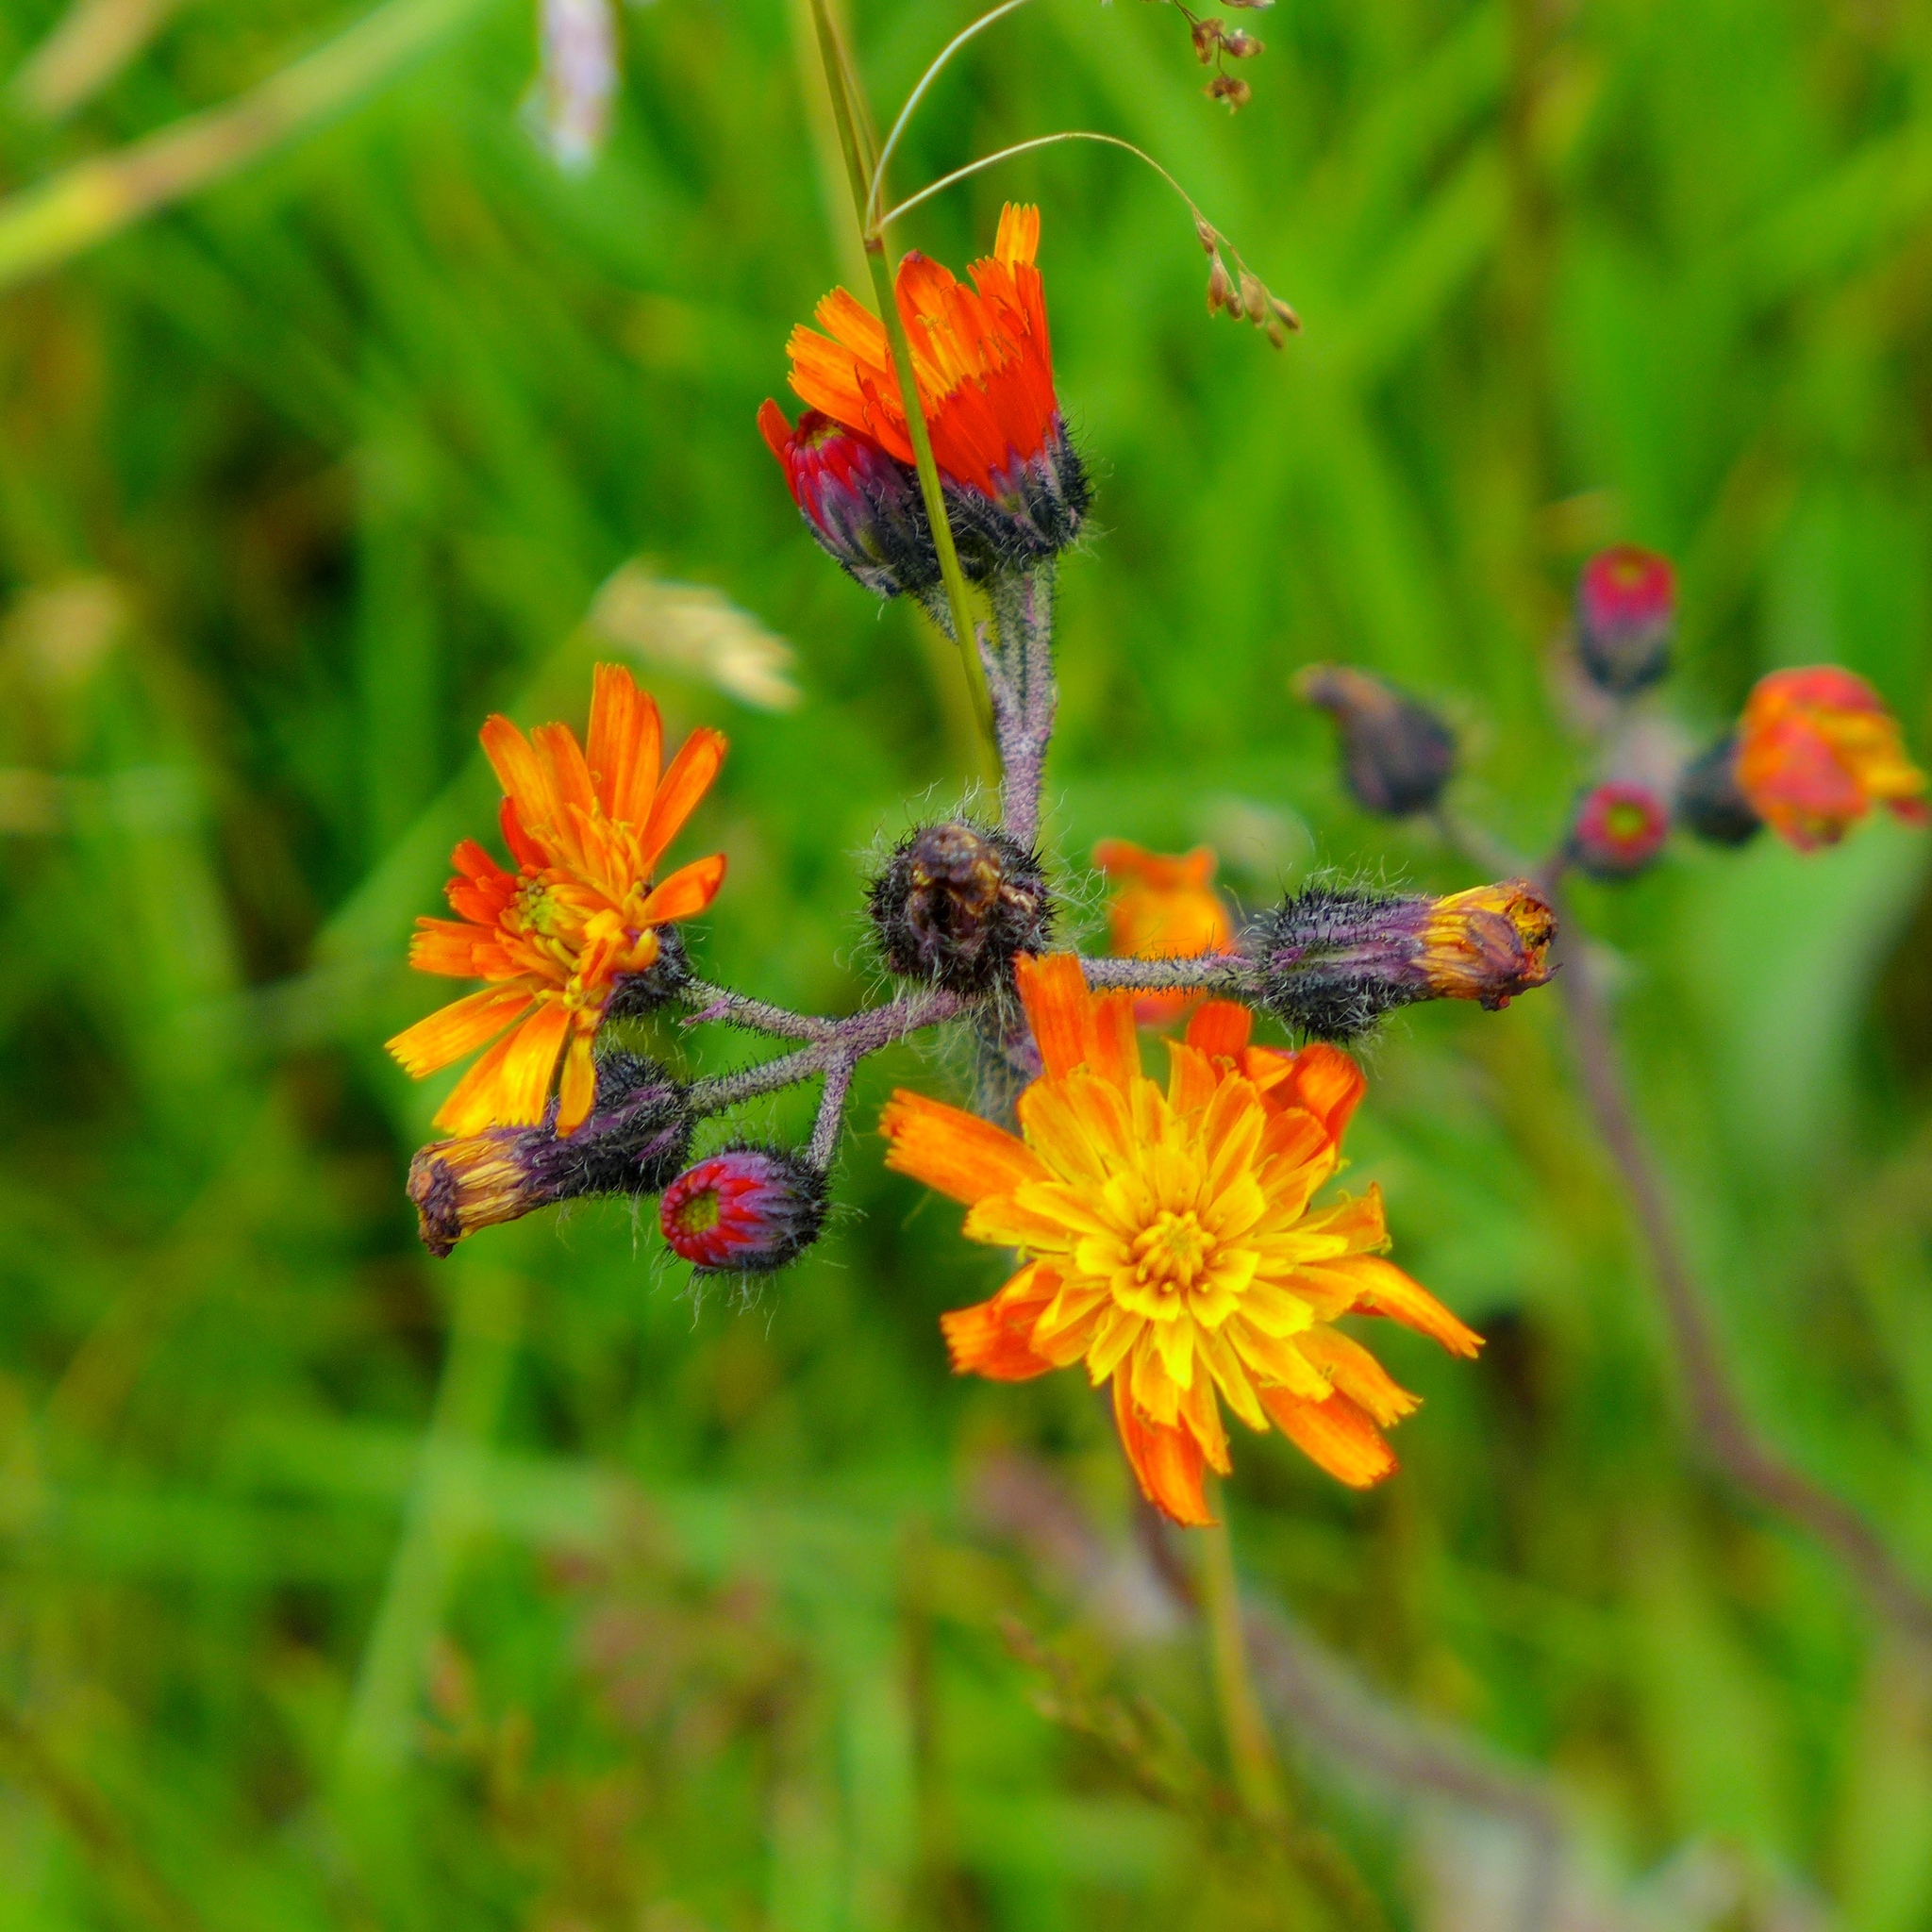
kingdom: Plantae
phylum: Tracheophyta
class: Magnoliopsida
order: Asterales
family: Asteraceae
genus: Pilosella
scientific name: Pilosella aurantiaca
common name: Fox-and-cubs
